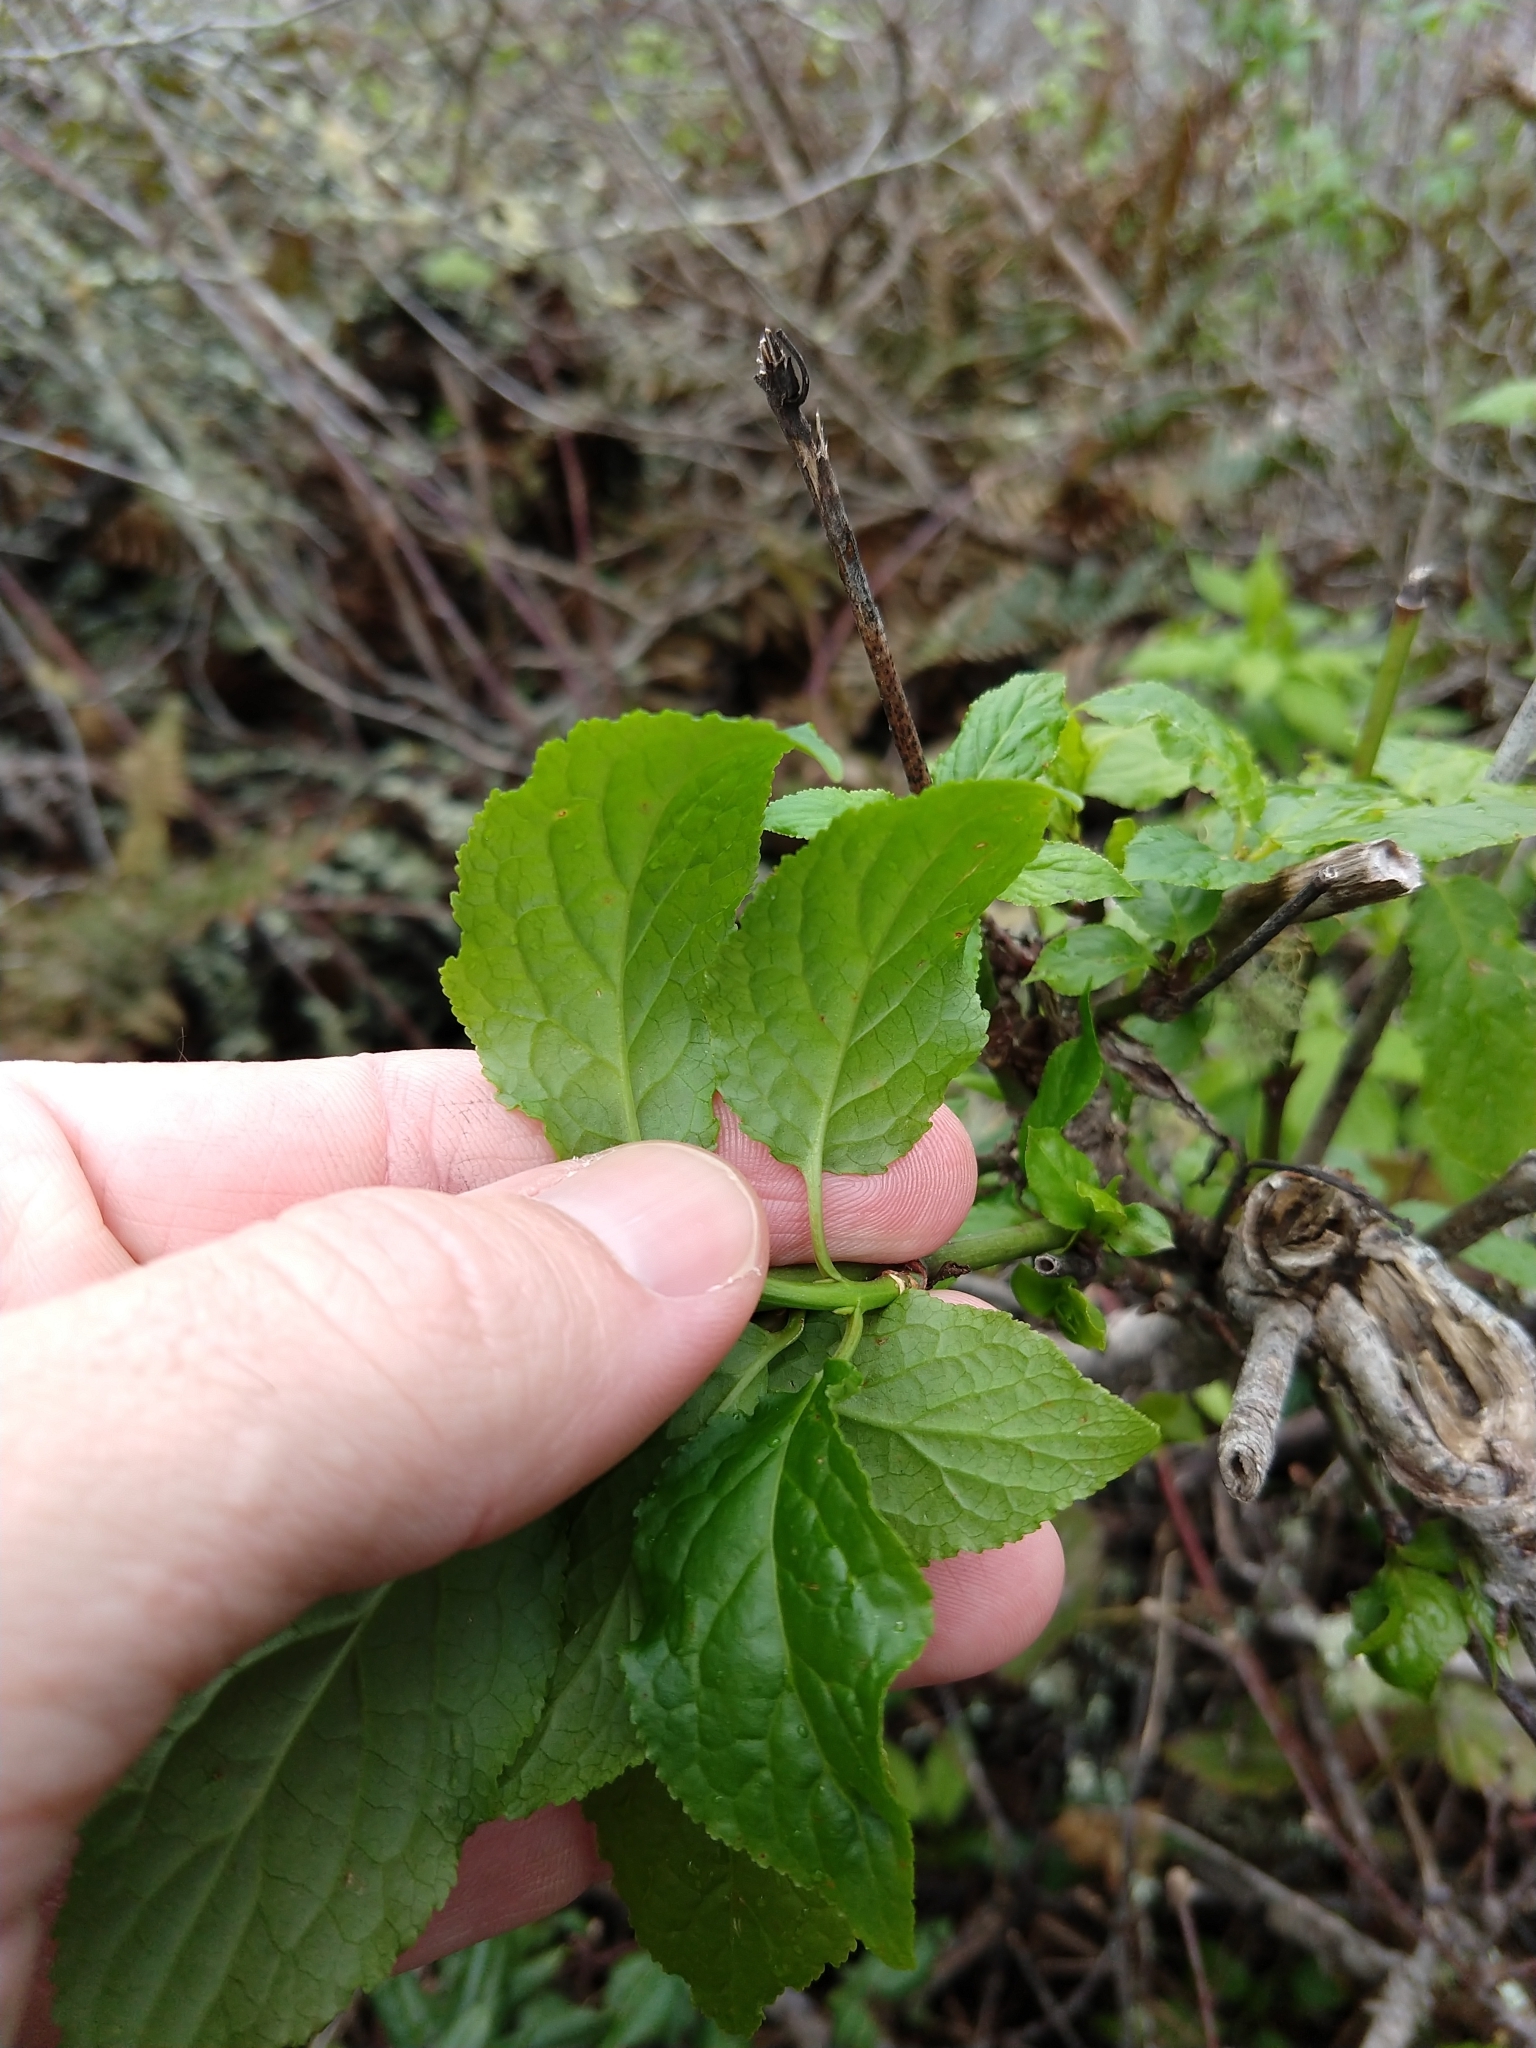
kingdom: Plantae
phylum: Tracheophyta
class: Magnoliopsida
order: Celastrales
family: Celastraceae
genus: Euonymus
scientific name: Euonymus occidentalis
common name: Western burningbush
